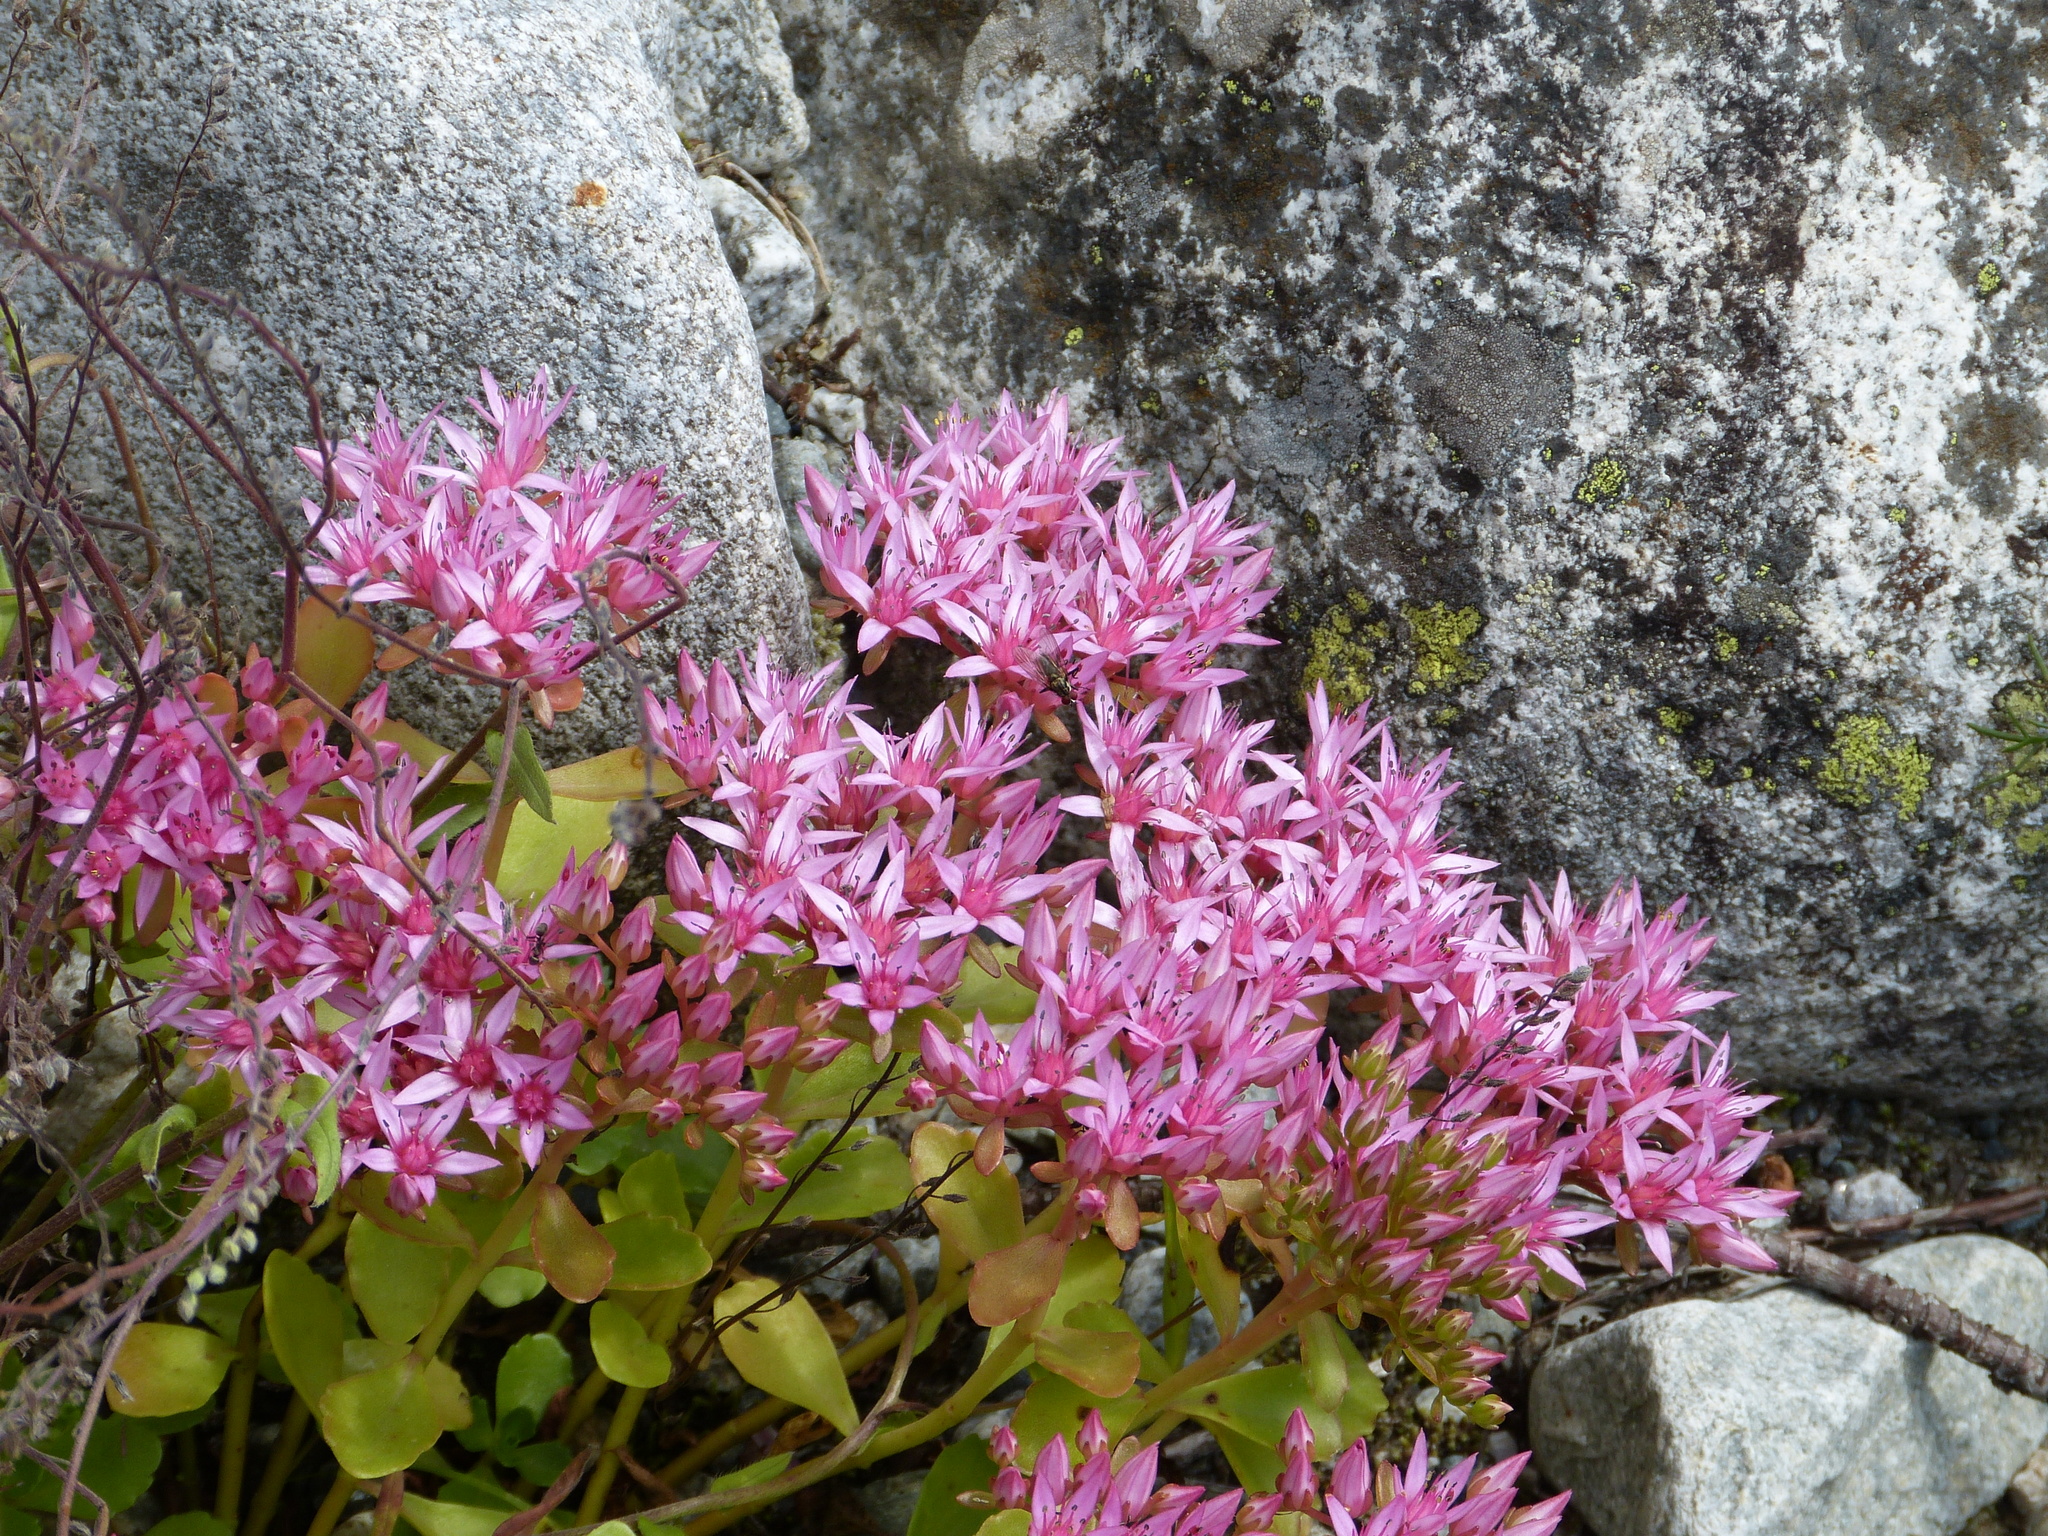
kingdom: Plantae
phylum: Tracheophyta
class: Magnoliopsida
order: Saxifragales
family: Crassulaceae
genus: Phedimus
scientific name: Phedimus spurius
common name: Caucasian stonecrop
